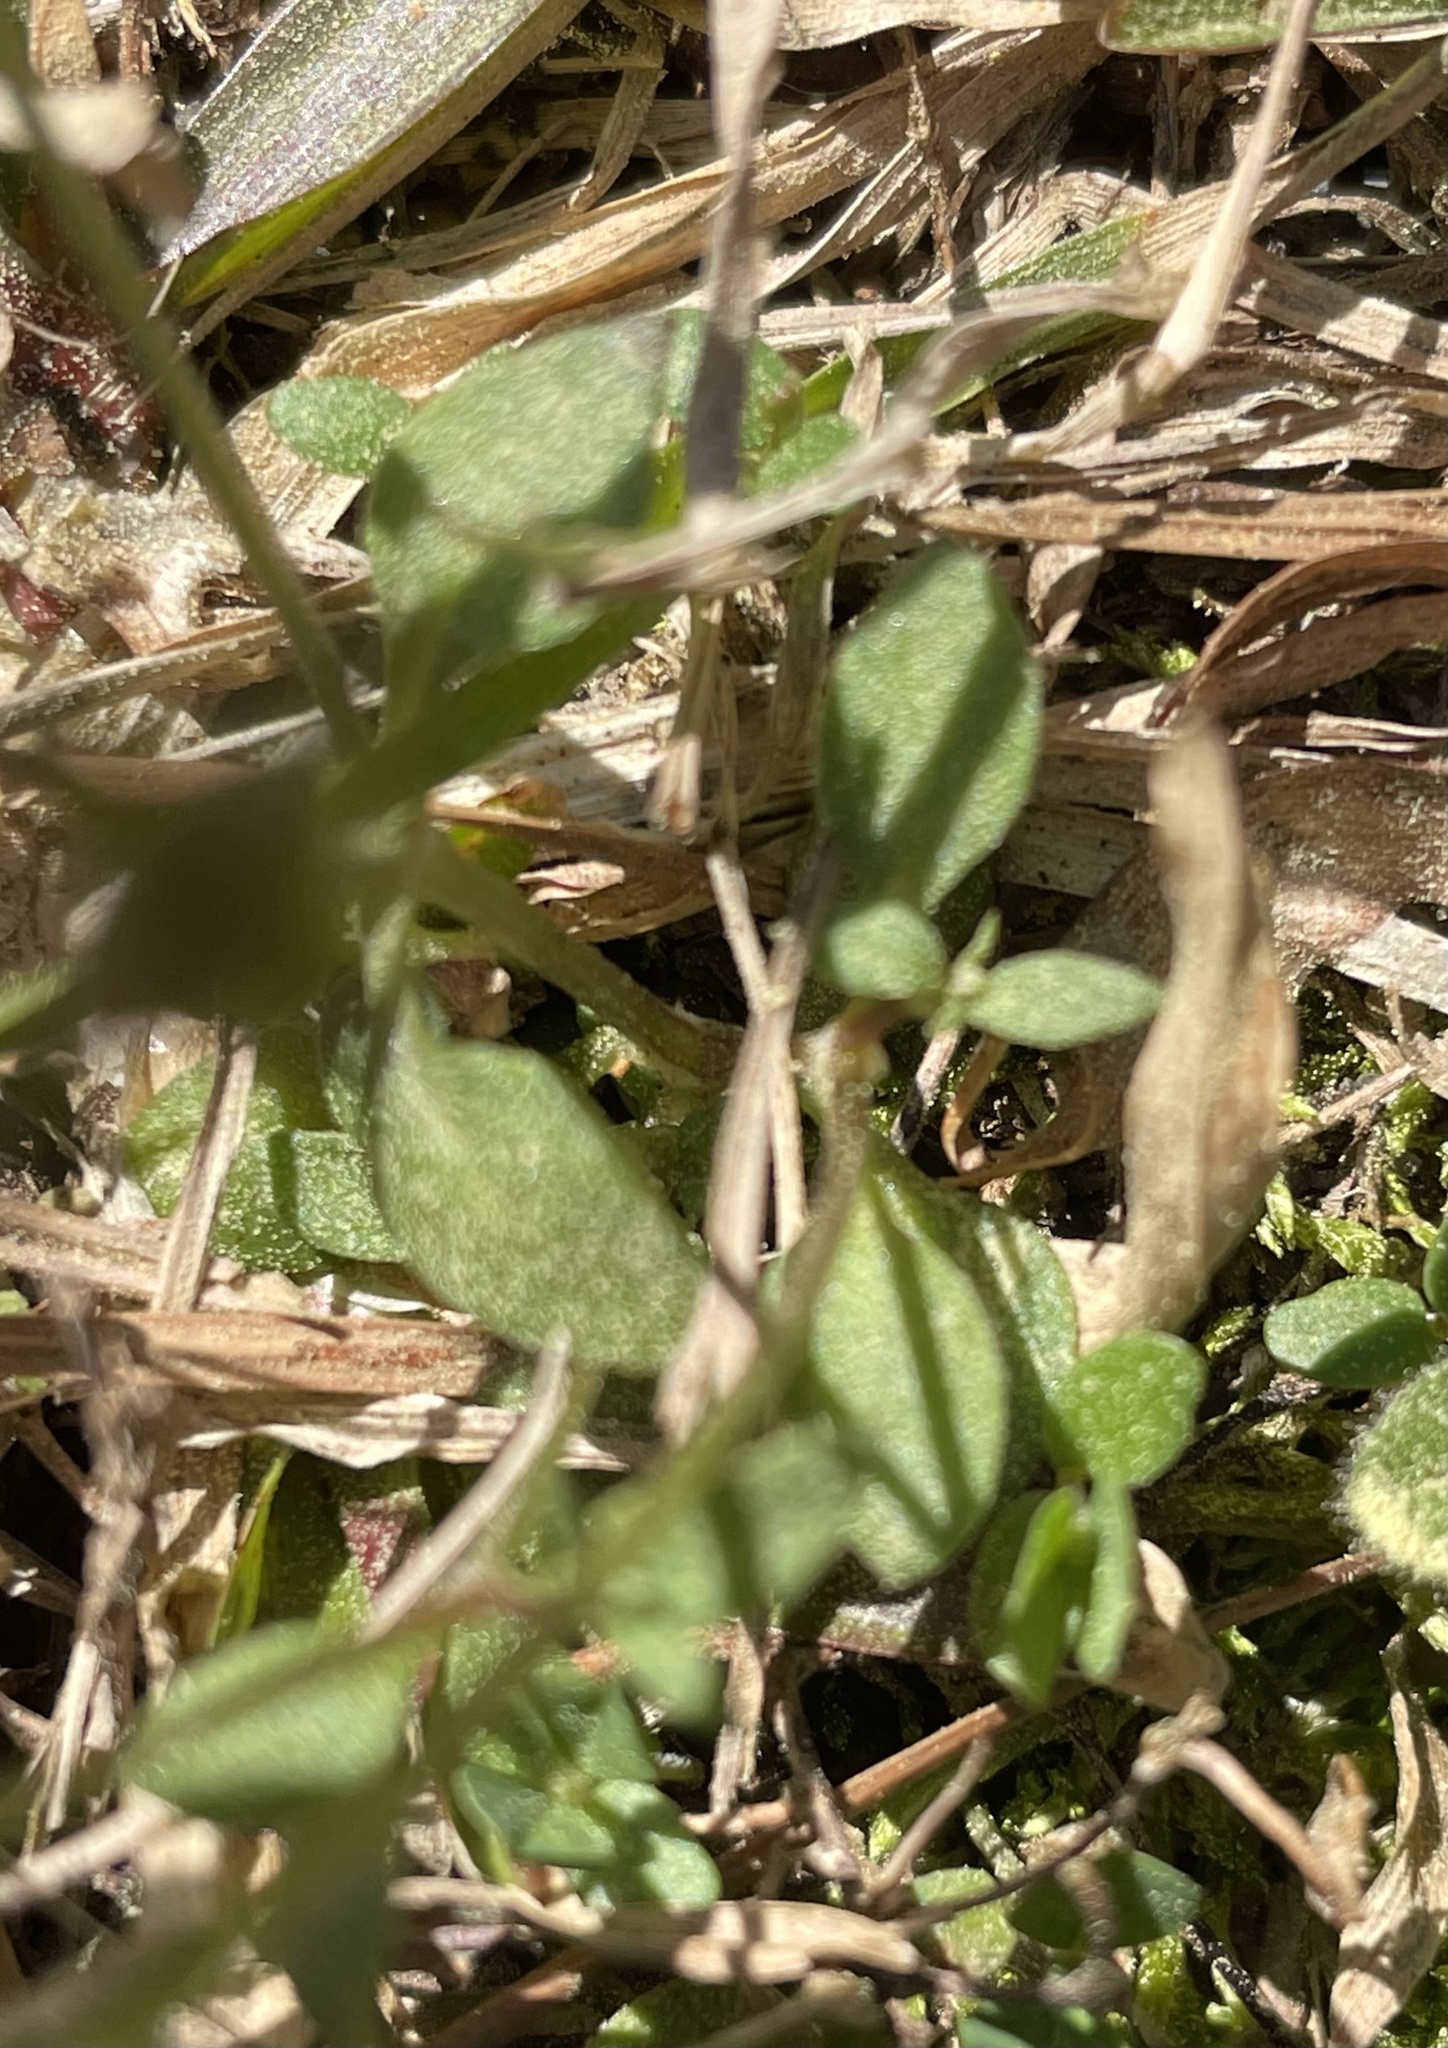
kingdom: Plantae
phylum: Tracheophyta
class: Magnoliopsida
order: Gentianales
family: Rubiaceae
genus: Houstonia
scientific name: Houstonia pusilla
